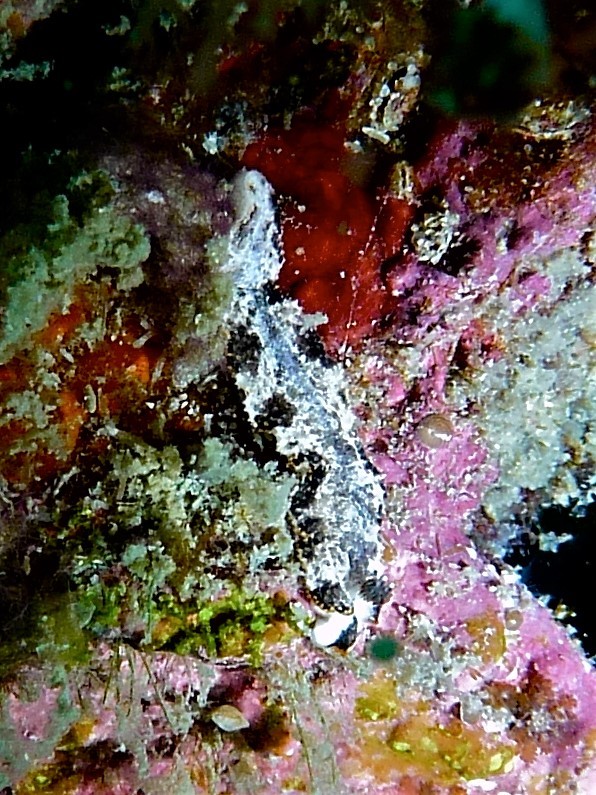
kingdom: Animalia
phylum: Mollusca
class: Gastropoda
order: Nudibranchia
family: Arminidae
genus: Dermatobranchus
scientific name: Dermatobranchus fortunatus
